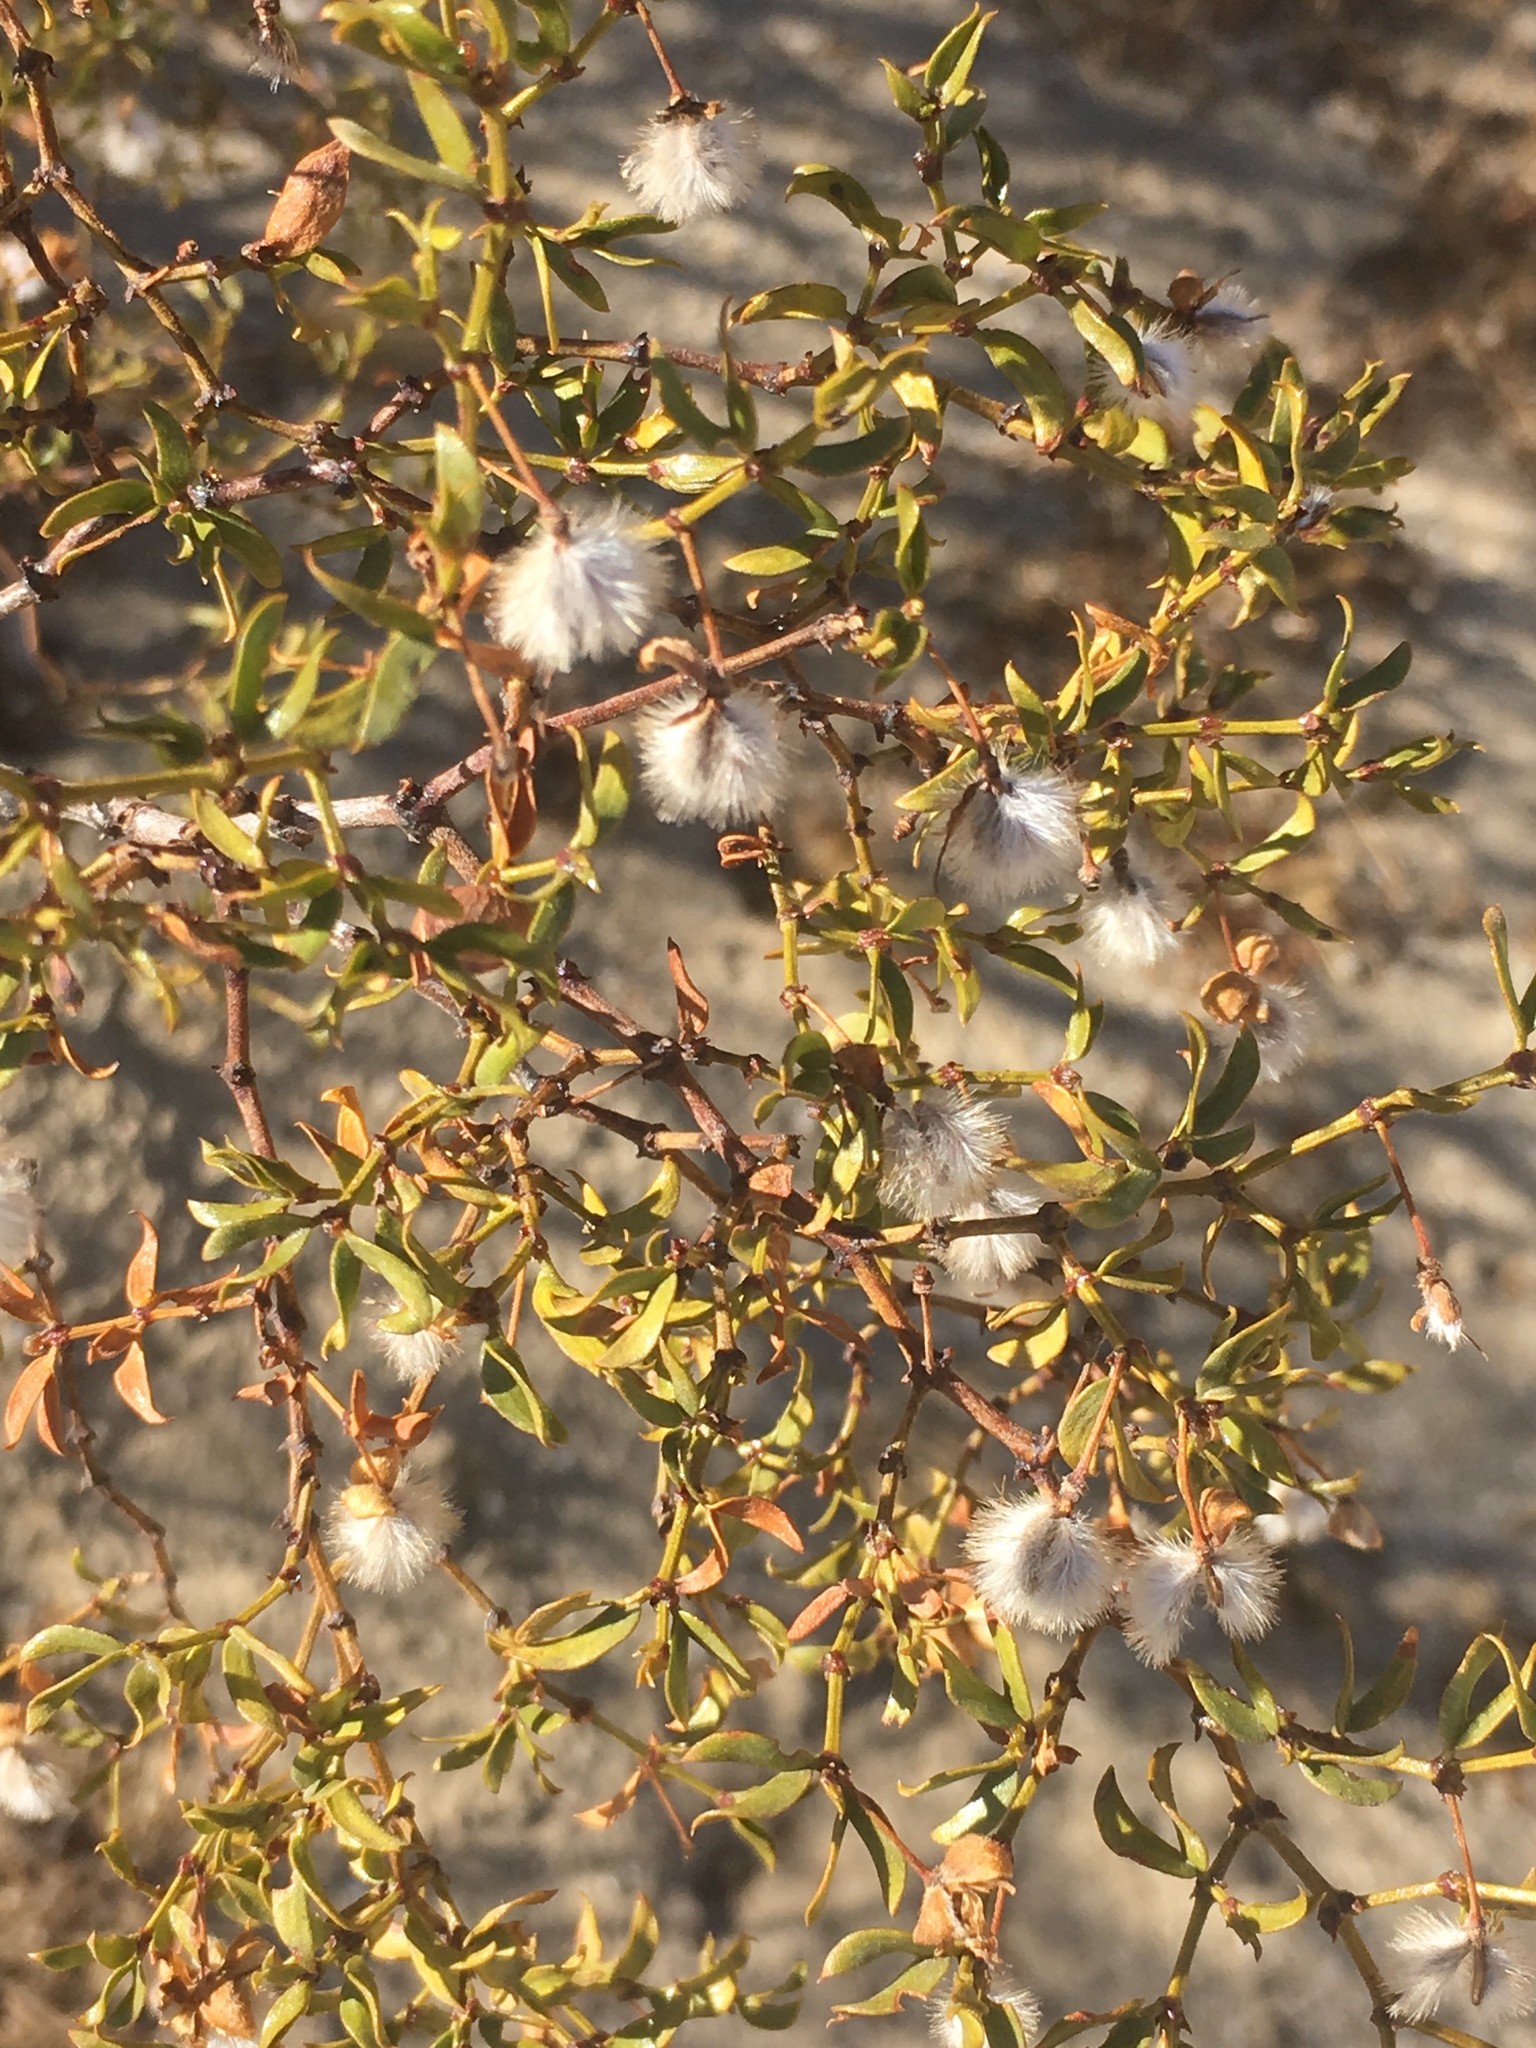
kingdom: Plantae
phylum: Tracheophyta
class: Magnoliopsida
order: Zygophyllales
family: Zygophyllaceae
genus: Larrea
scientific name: Larrea tridentata
